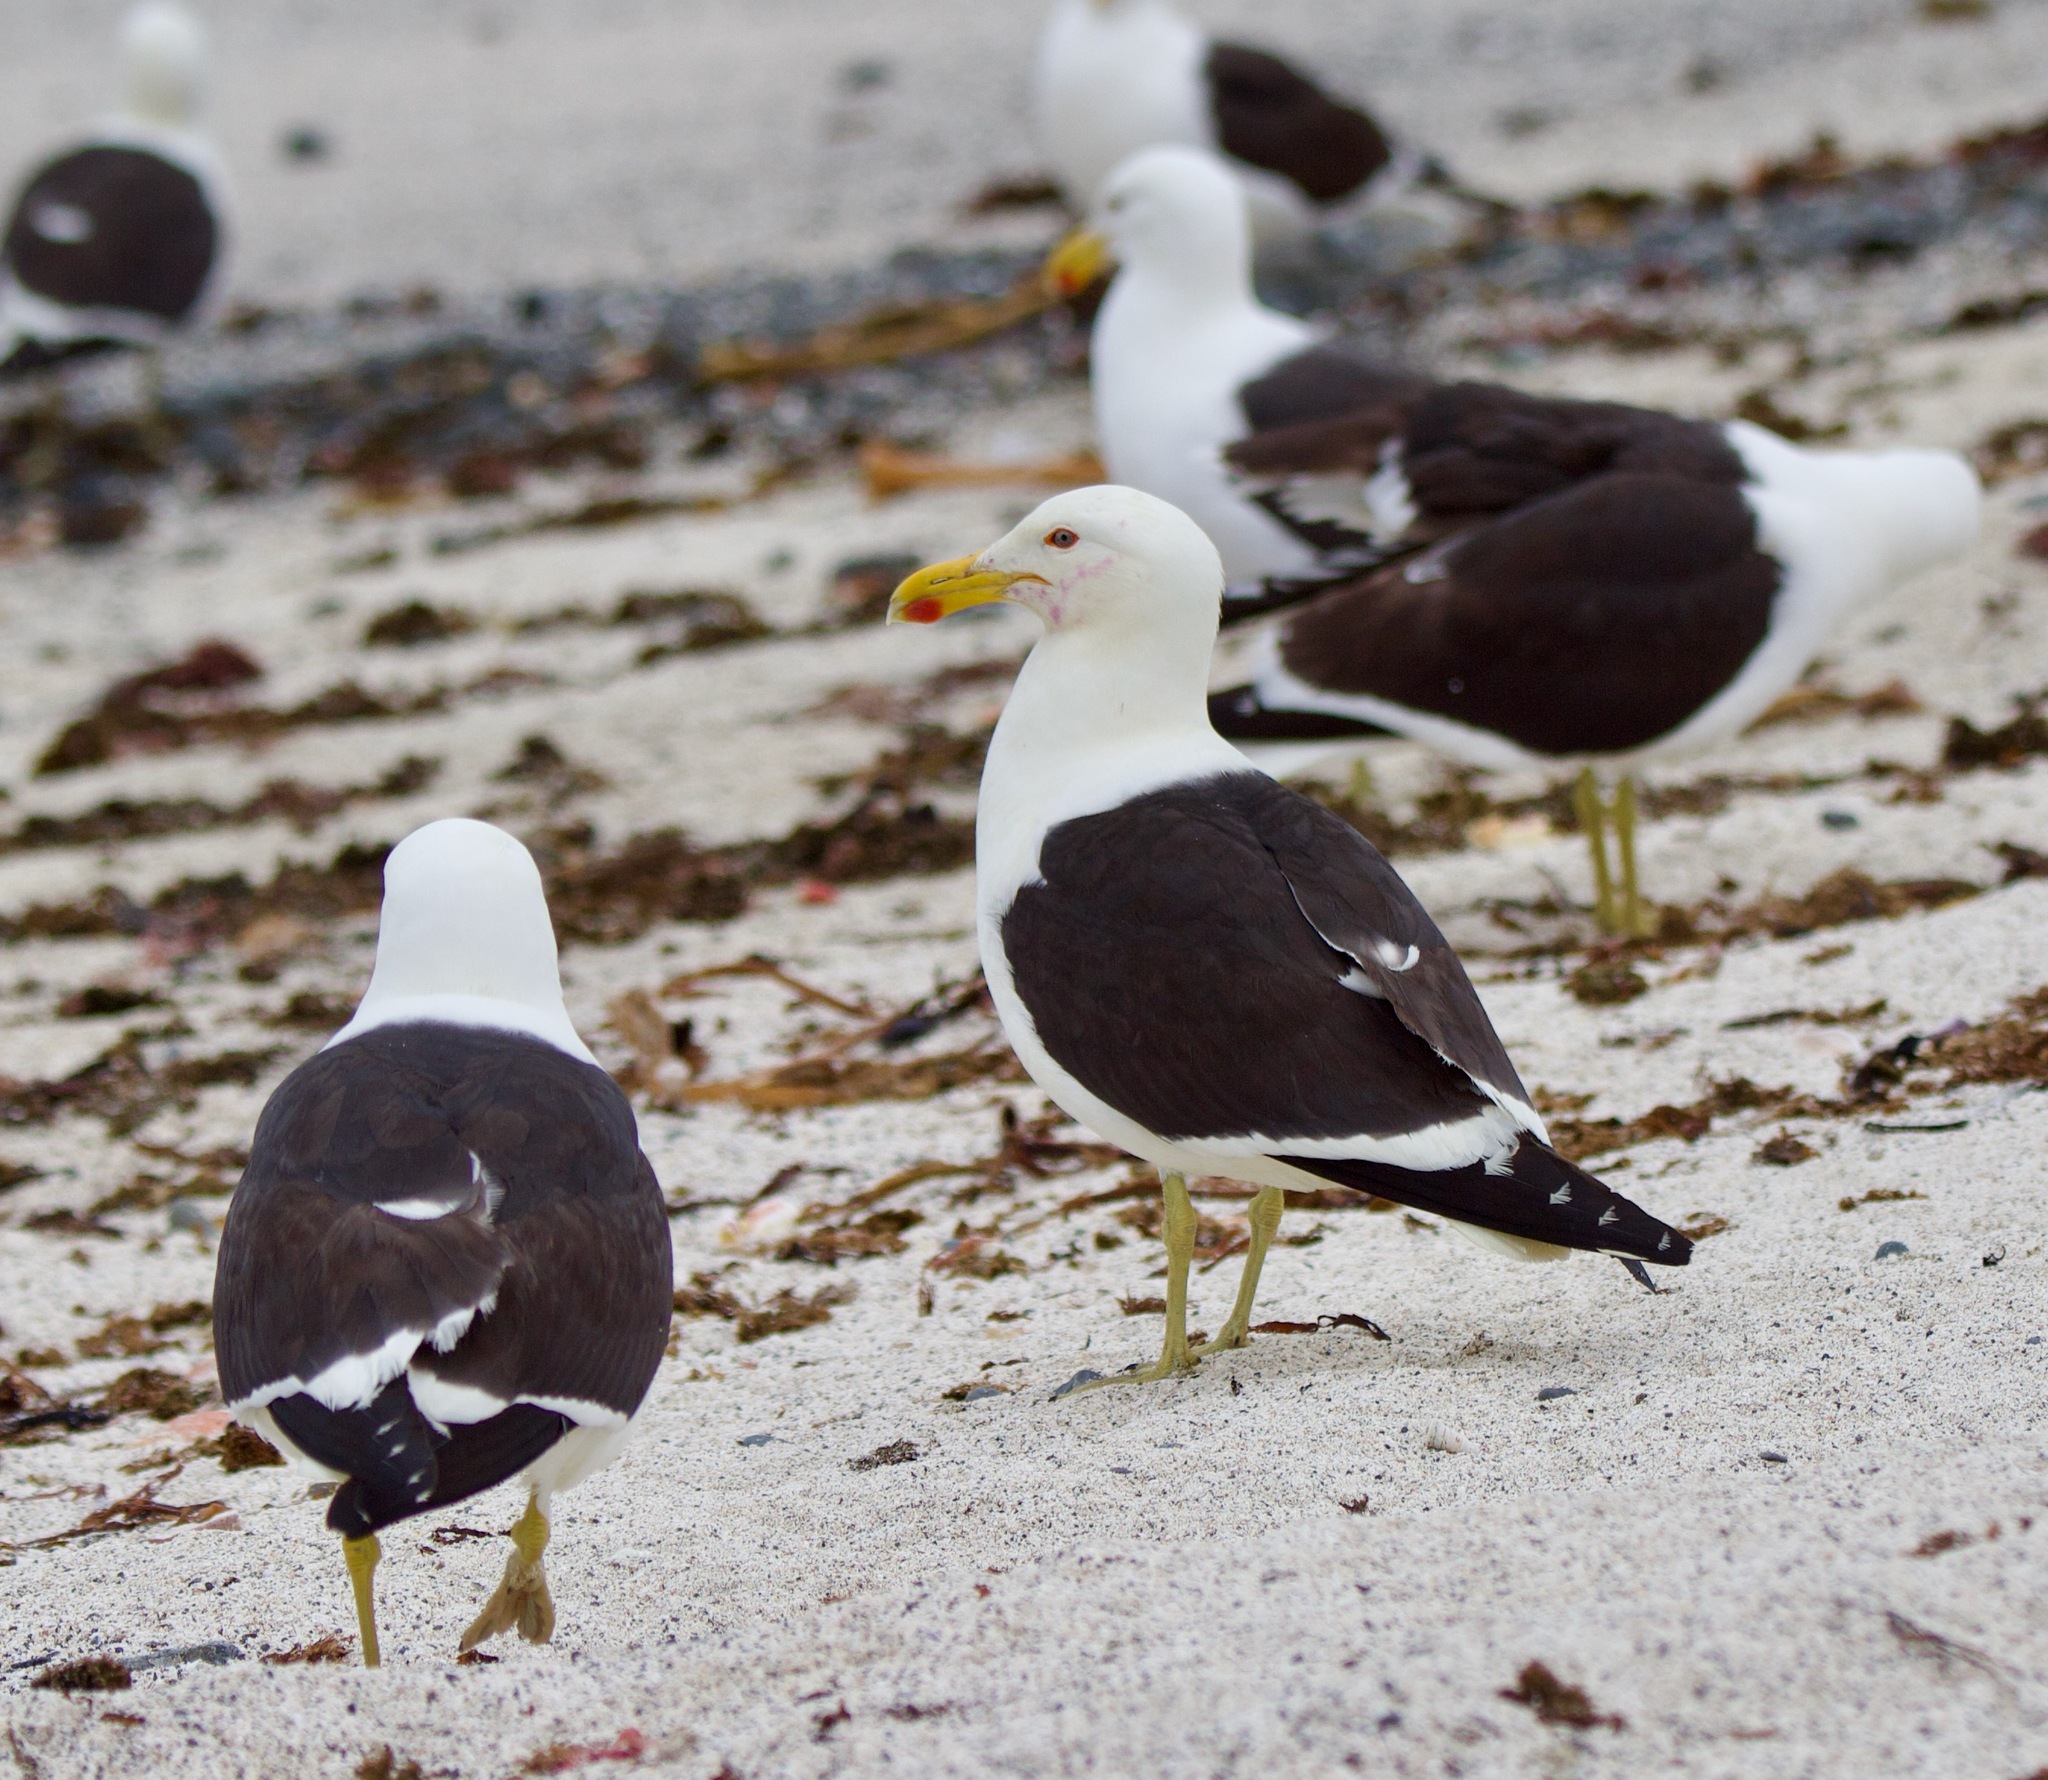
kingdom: Animalia
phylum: Chordata
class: Aves
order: Charadriiformes
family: Laridae
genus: Larus
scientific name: Larus dominicanus
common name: Kelp gull
